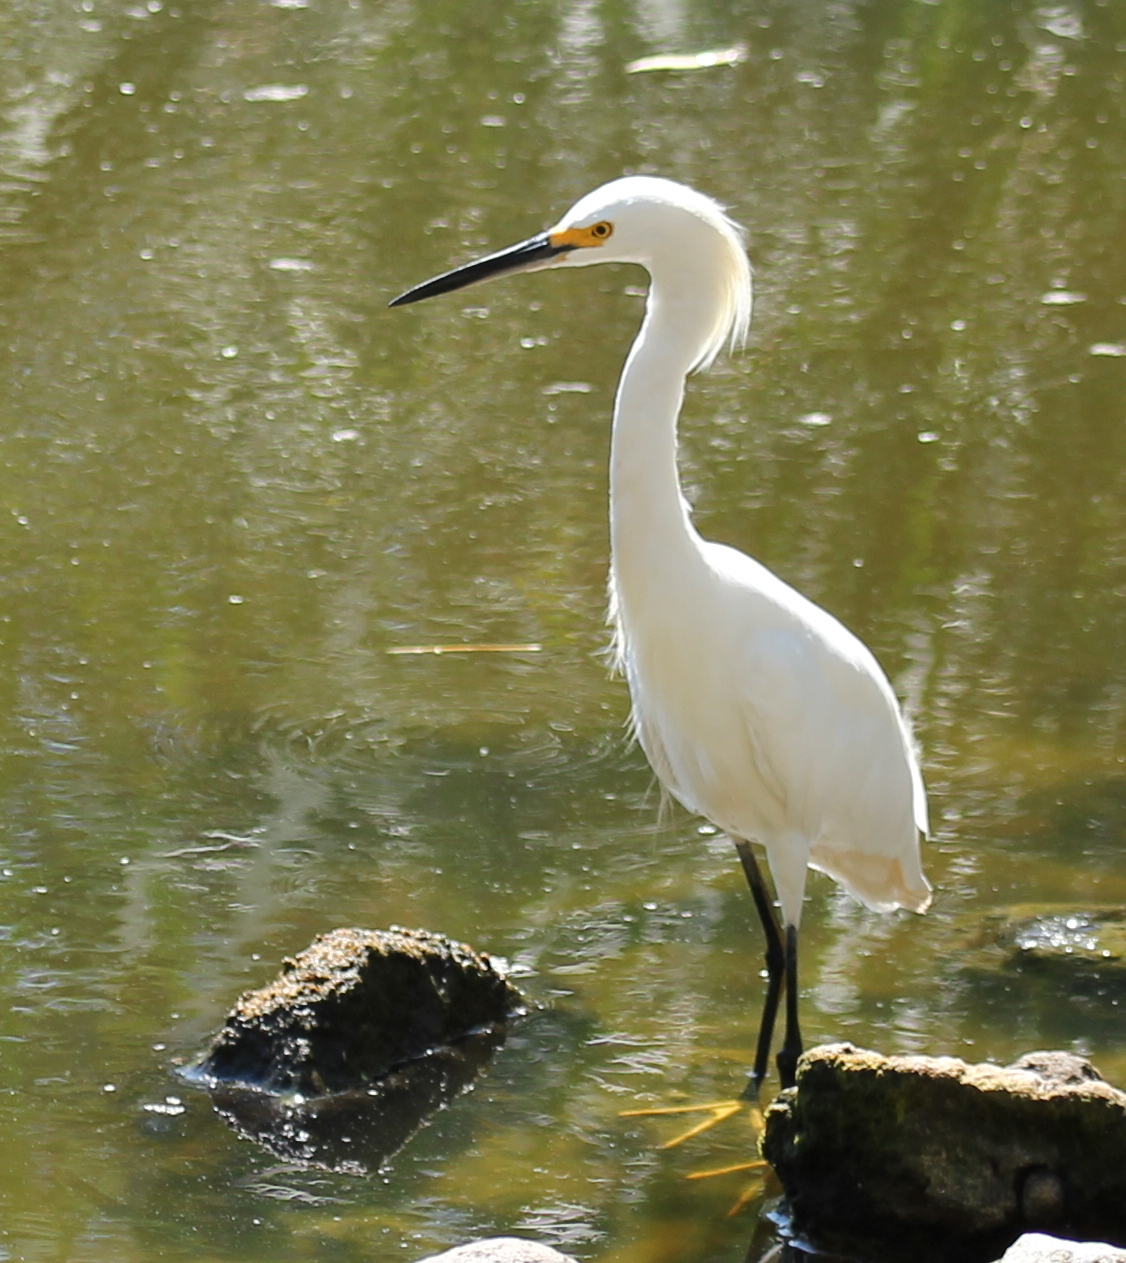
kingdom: Animalia
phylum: Chordata
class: Aves
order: Pelecaniformes
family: Ardeidae
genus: Egretta
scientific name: Egretta thula
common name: Snowy egret
